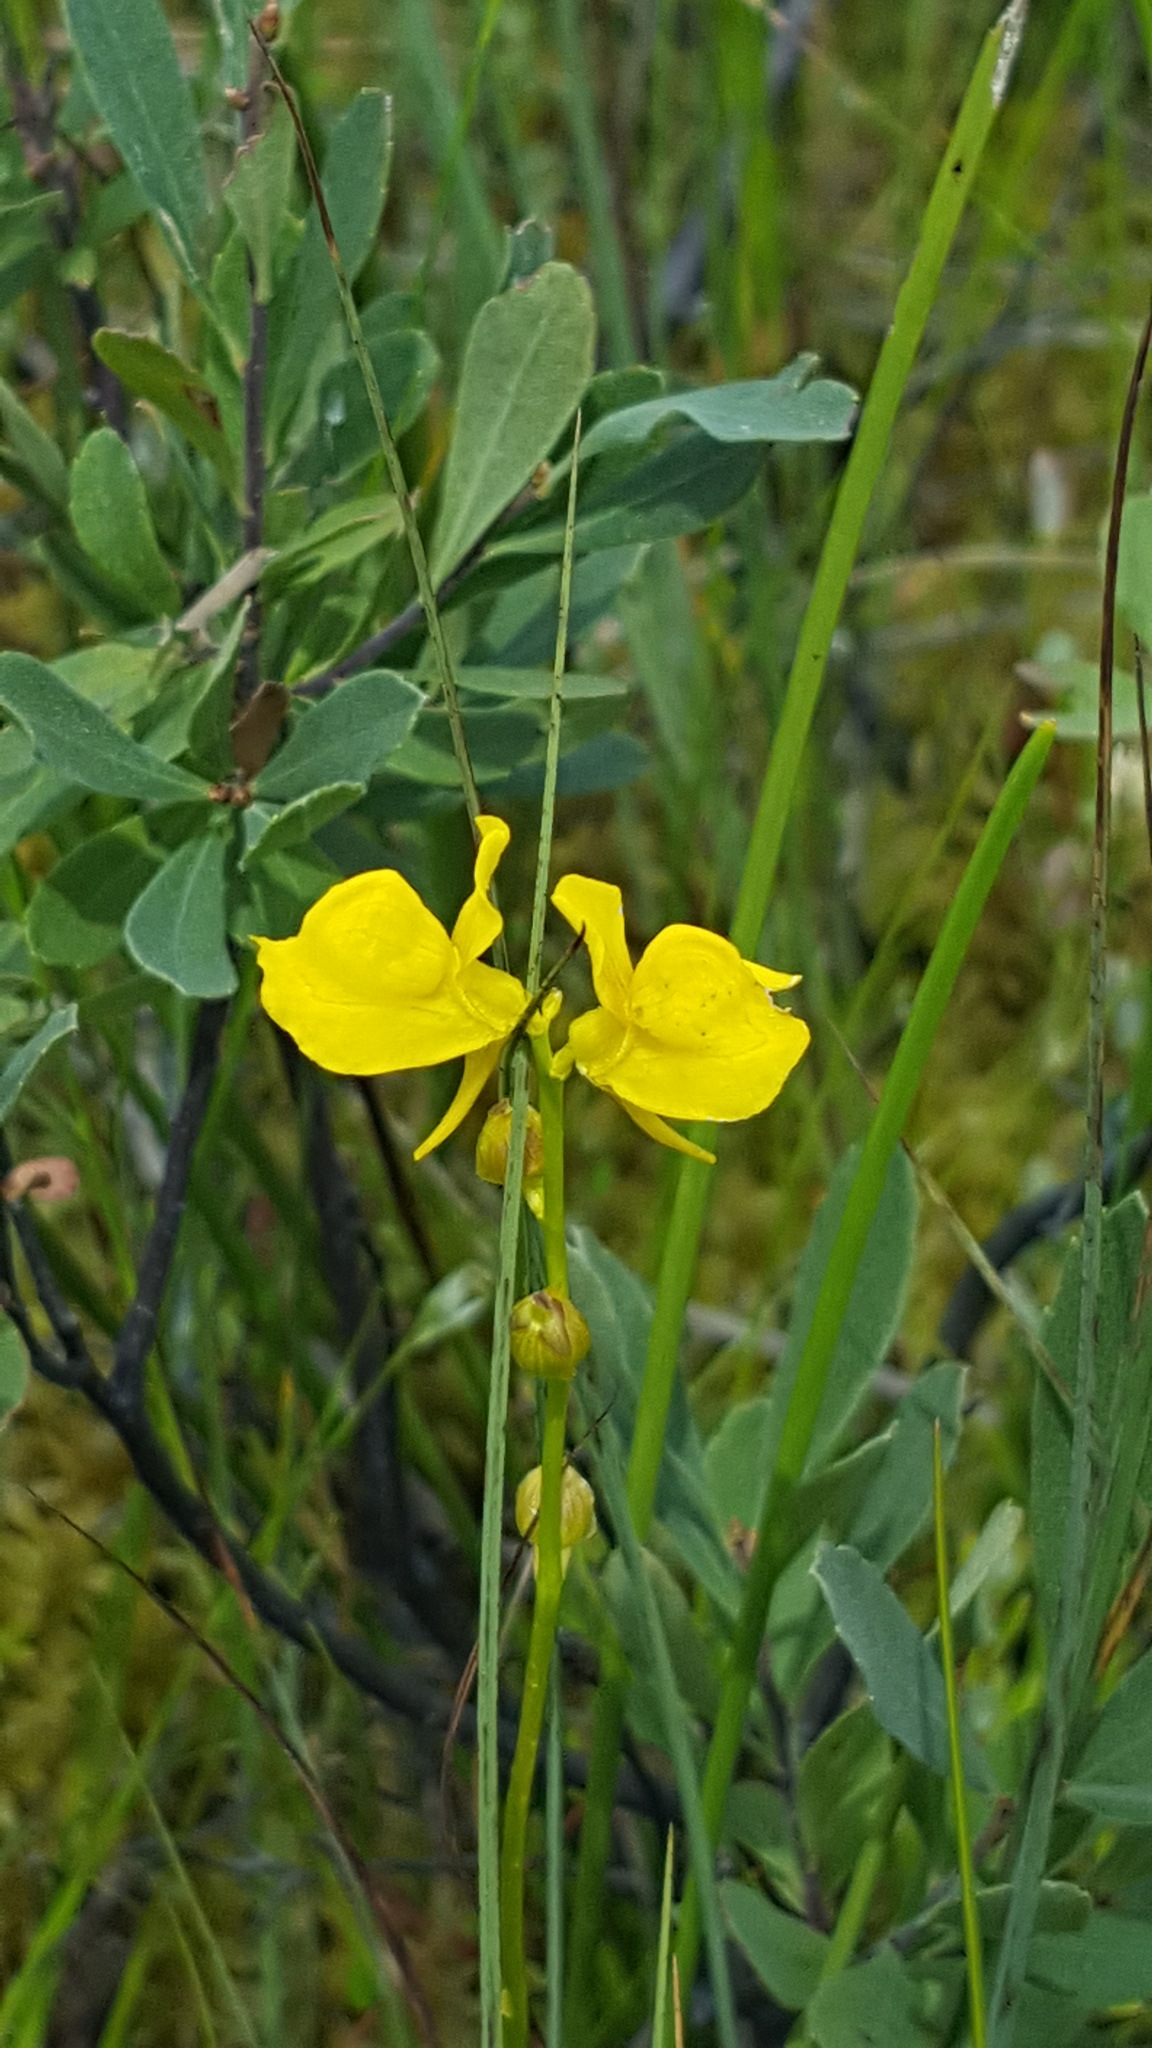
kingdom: Plantae
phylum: Tracheophyta
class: Magnoliopsida
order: Lamiales
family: Lentibulariaceae
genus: Utricularia
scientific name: Utricularia cornuta
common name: Horned bladderwort
